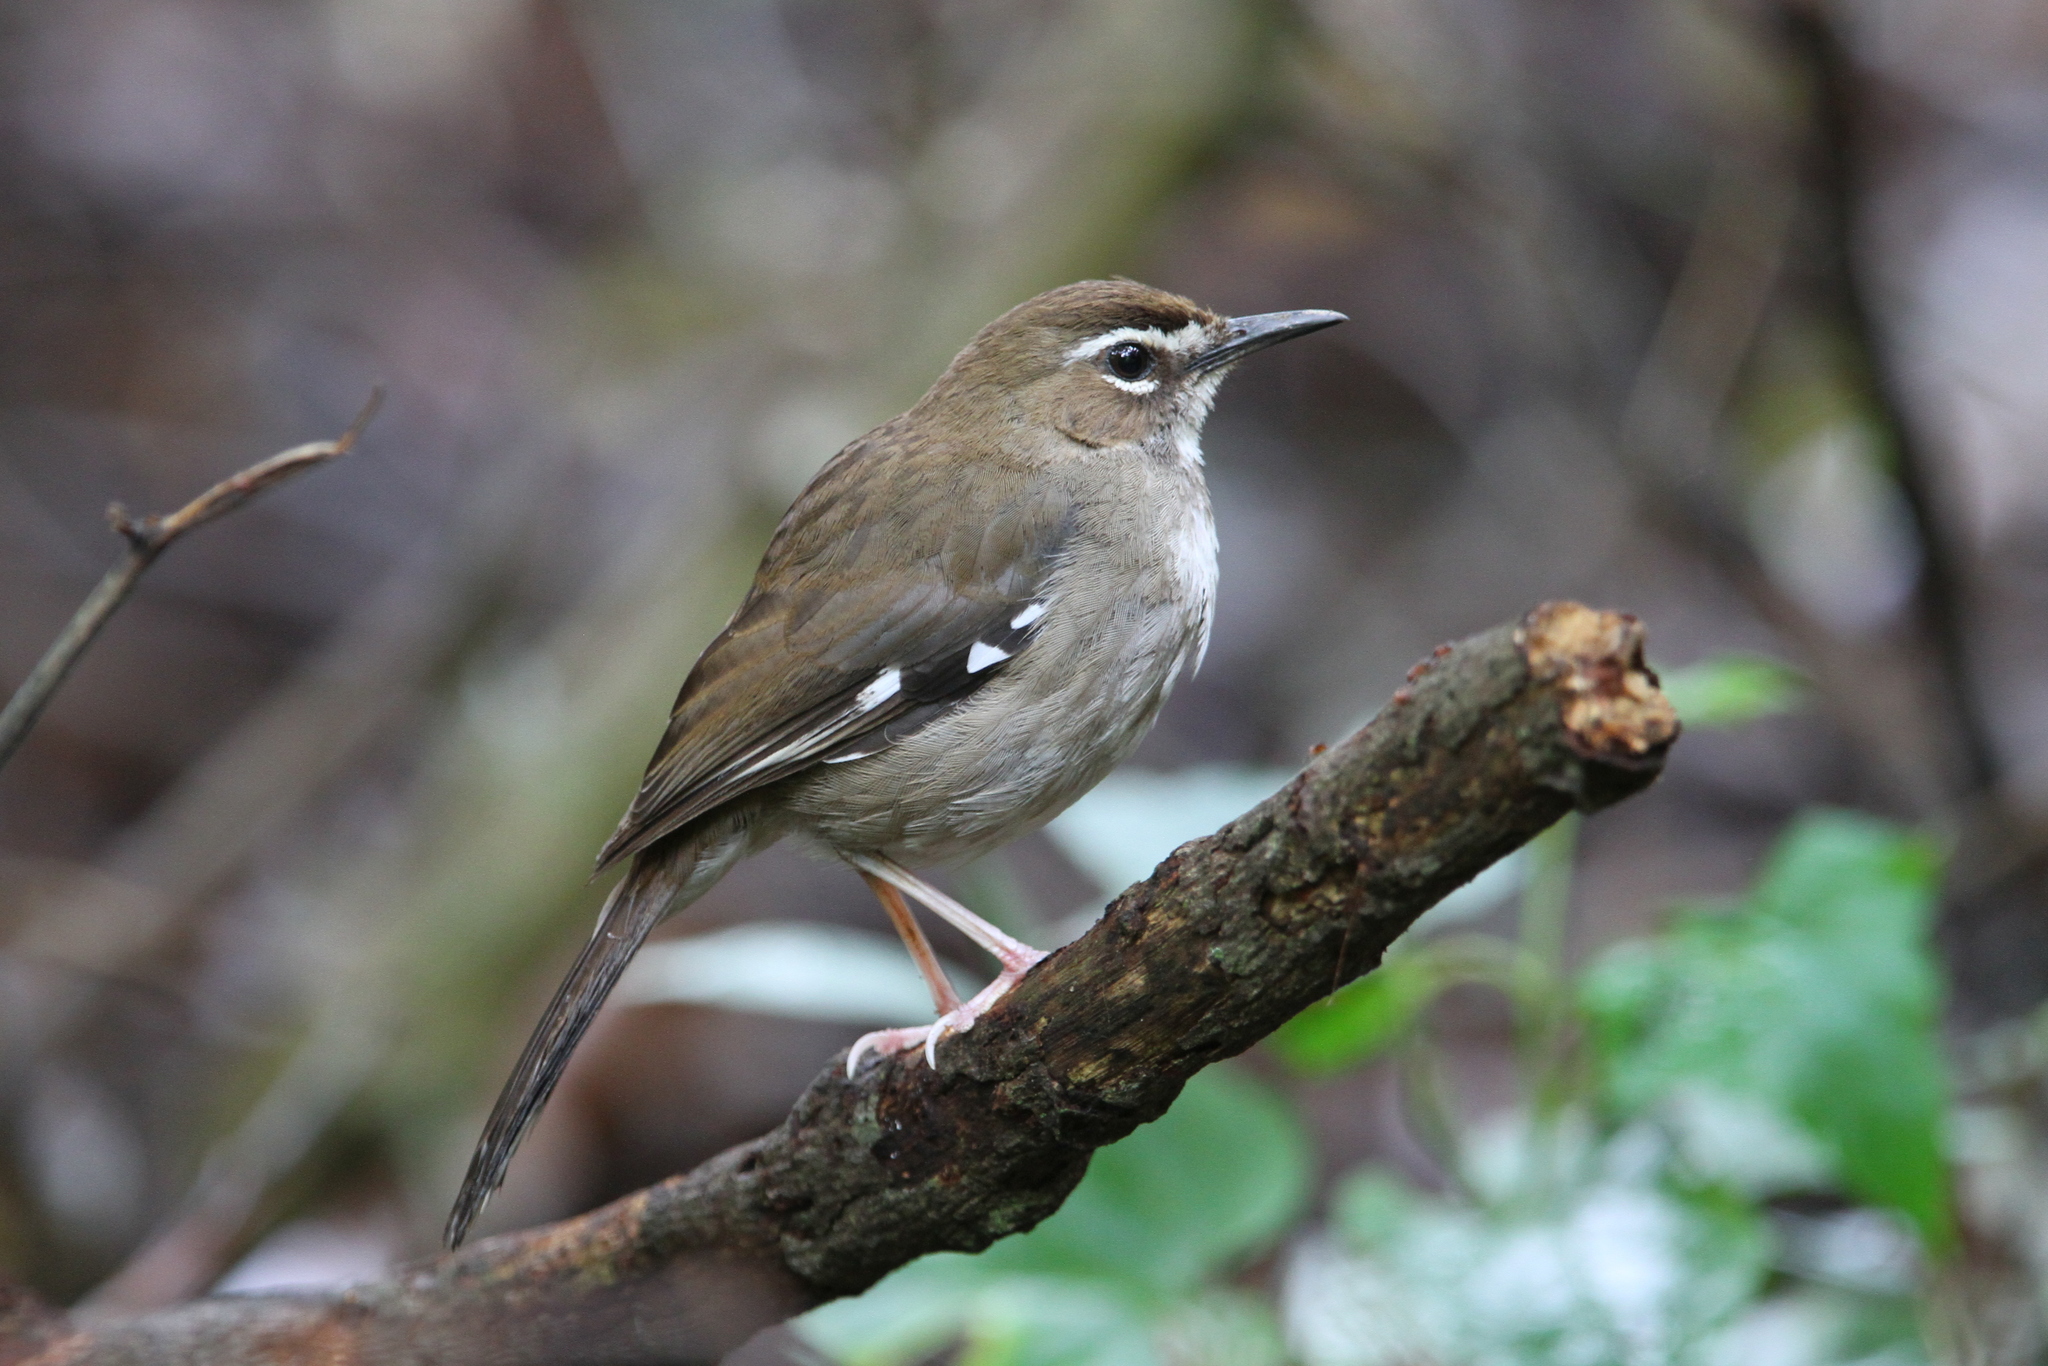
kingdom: Animalia
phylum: Chordata
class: Aves
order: Passeriformes
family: Muscicapidae
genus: Erythropygia
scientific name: Erythropygia signata
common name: Brown scrub robin
